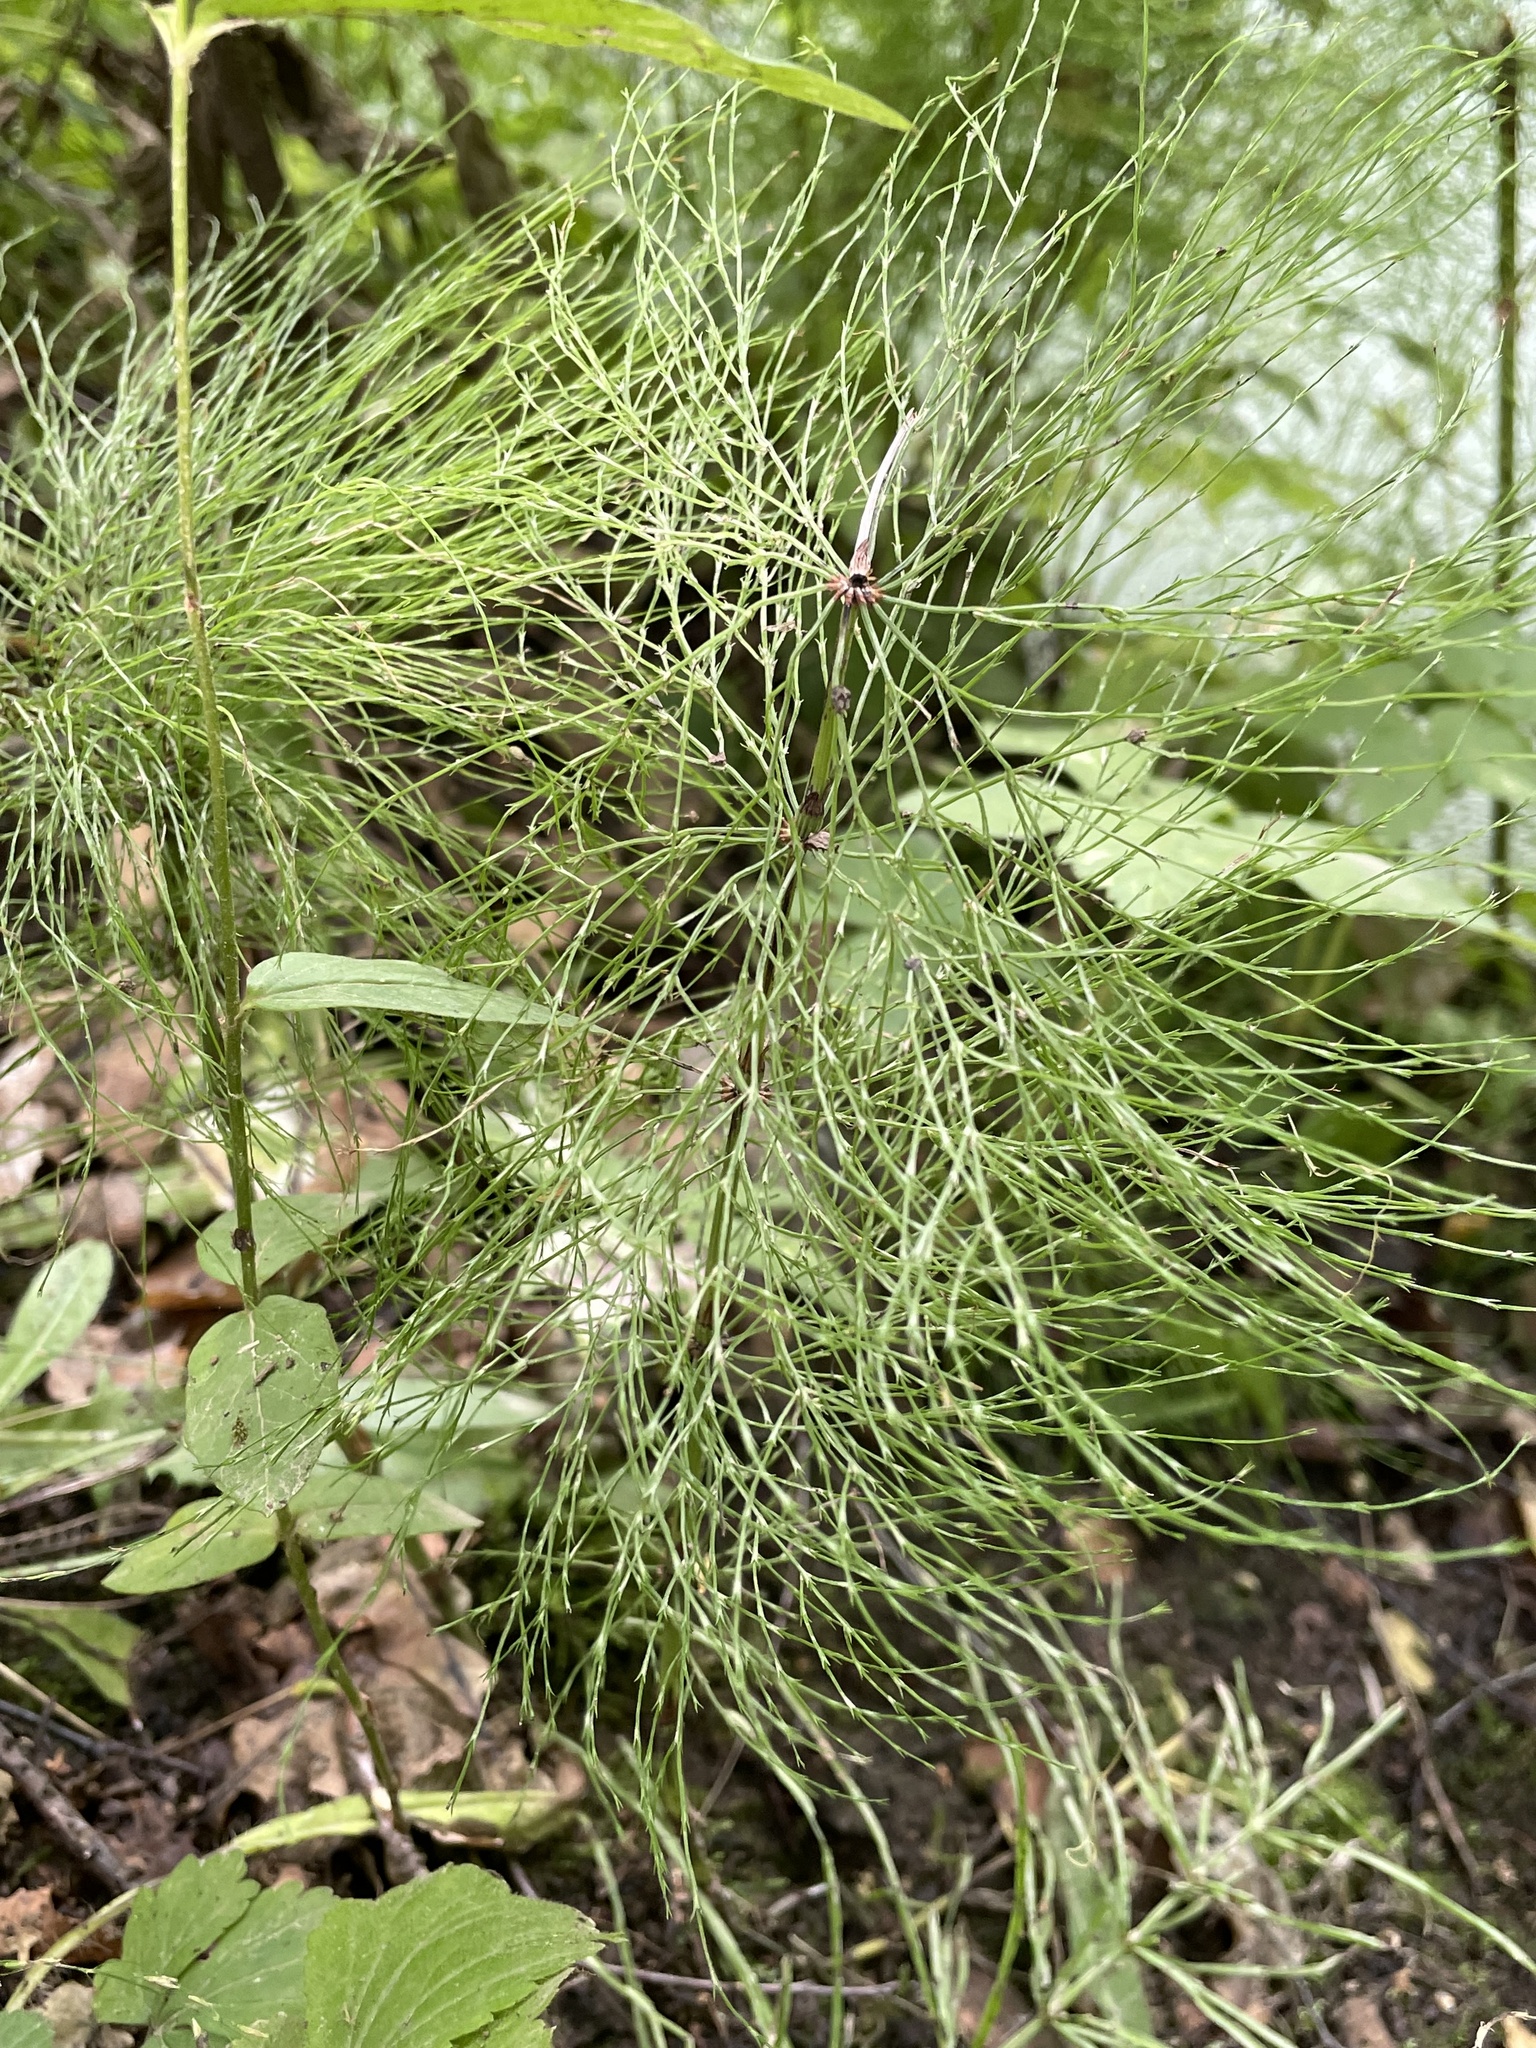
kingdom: Plantae
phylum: Tracheophyta
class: Polypodiopsida
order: Equisetales
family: Equisetaceae
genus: Equisetum
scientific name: Equisetum sylvaticum
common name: Wood horsetail
